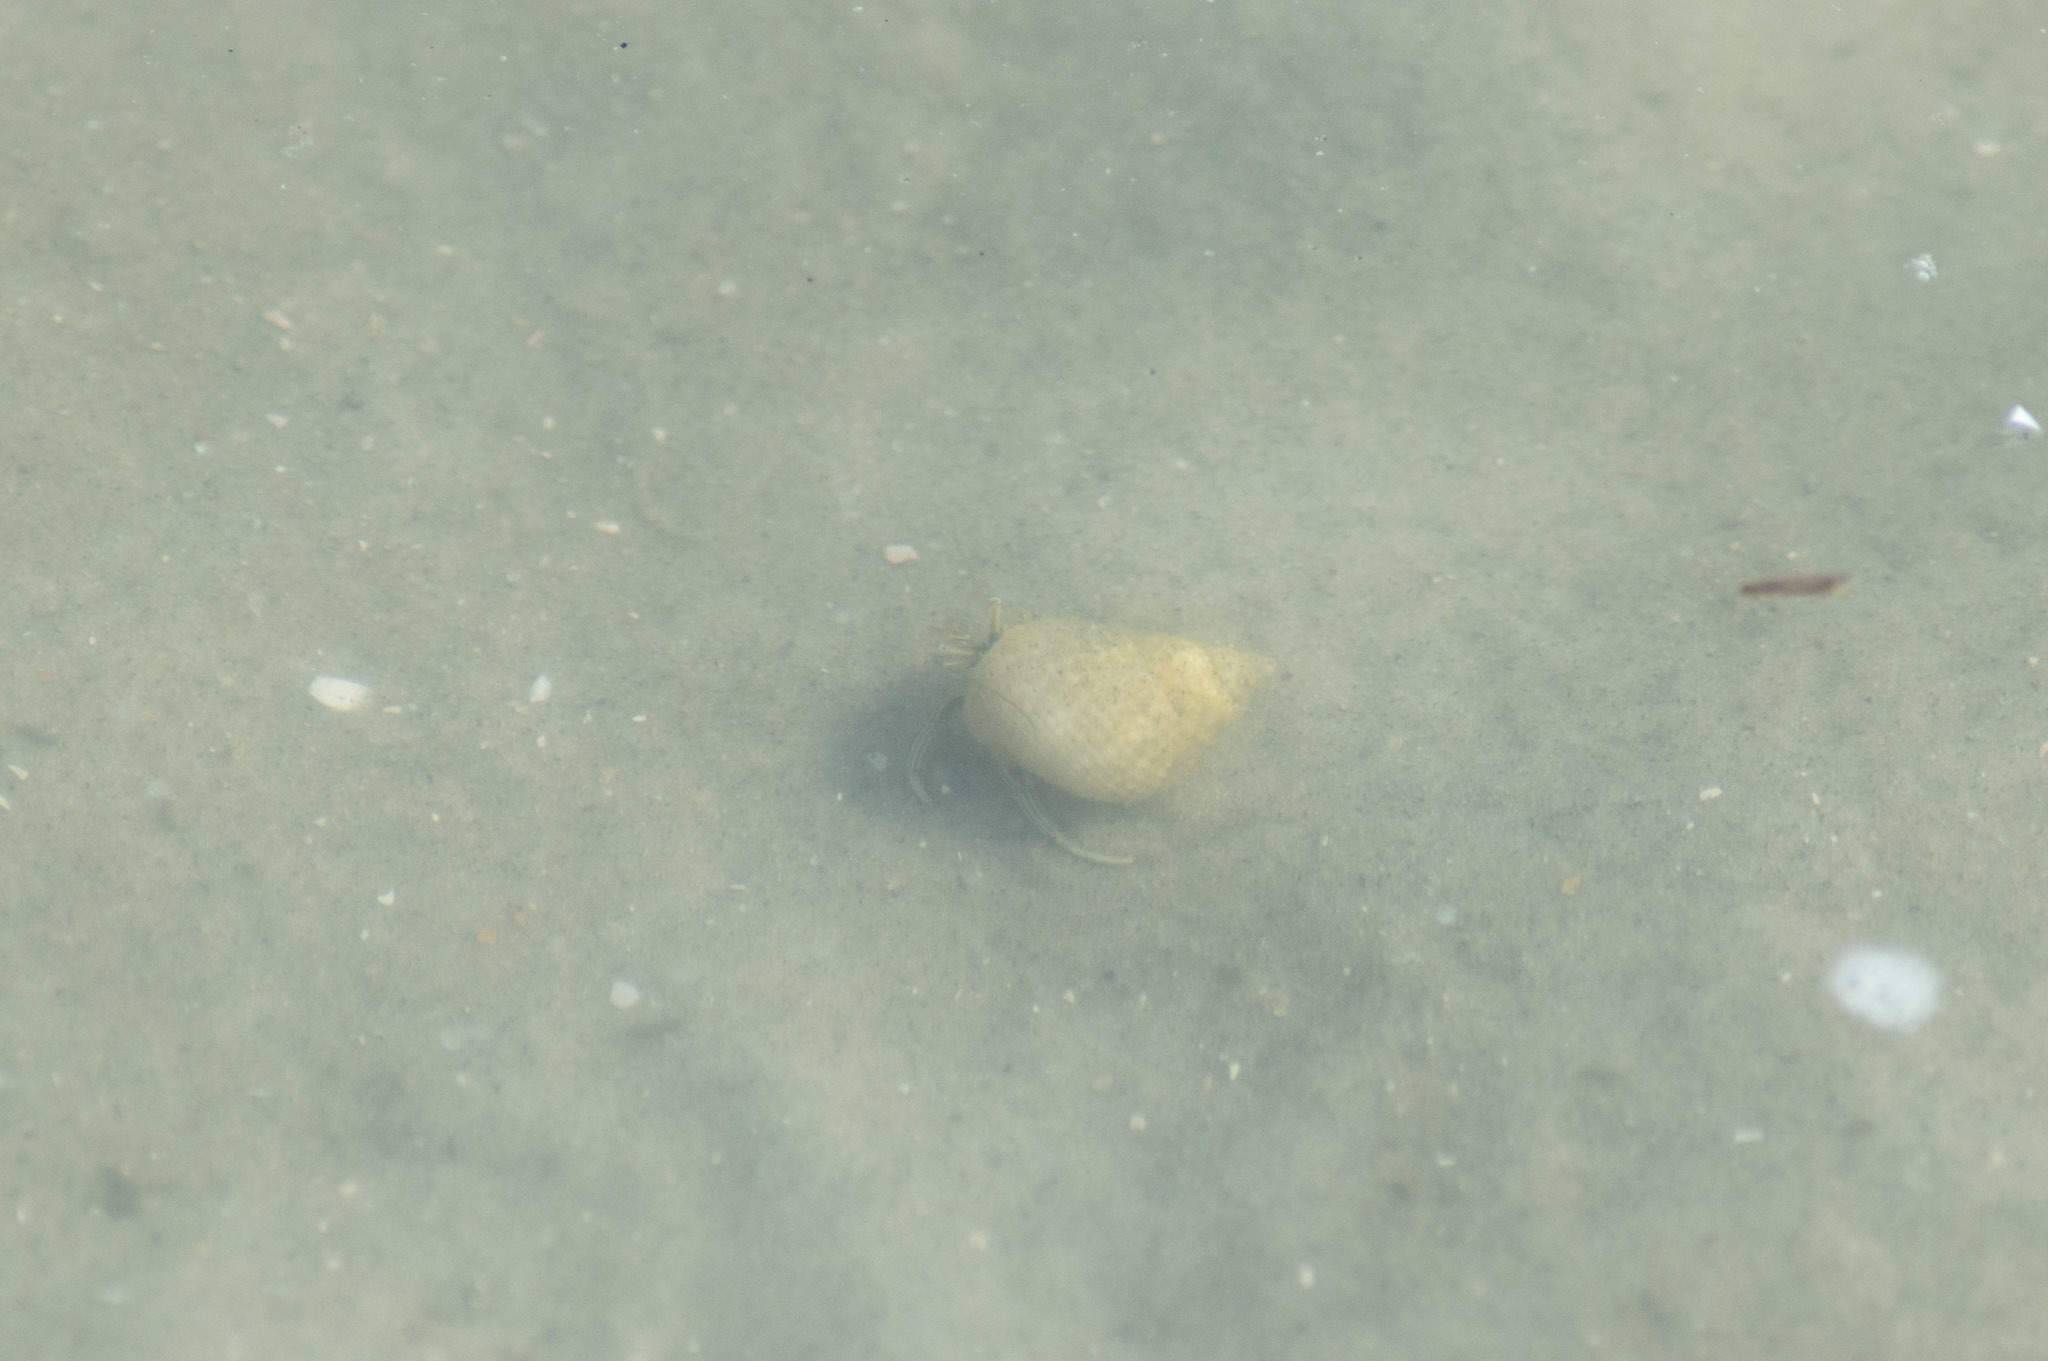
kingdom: Animalia
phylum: Arthropoda
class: Malacostraca
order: Decapoda
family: Diogenidae
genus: Clibanarius
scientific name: Clibanarius vittatus
